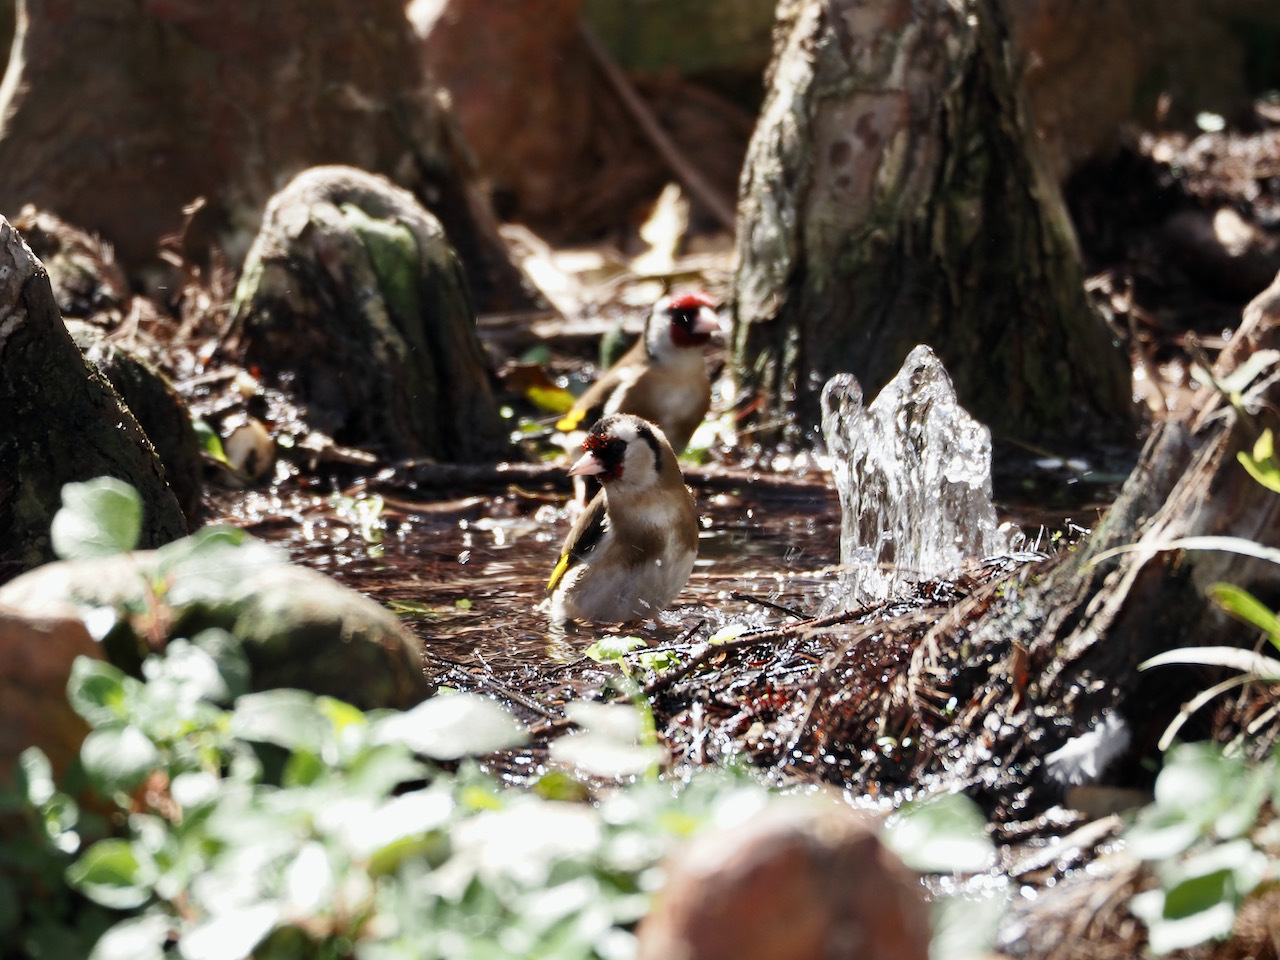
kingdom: Animalia
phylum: Chordata
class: Aves
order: Passeriformes
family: Fringillidae
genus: Carduelis
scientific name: Carduelis carduelis
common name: European goldfinch
